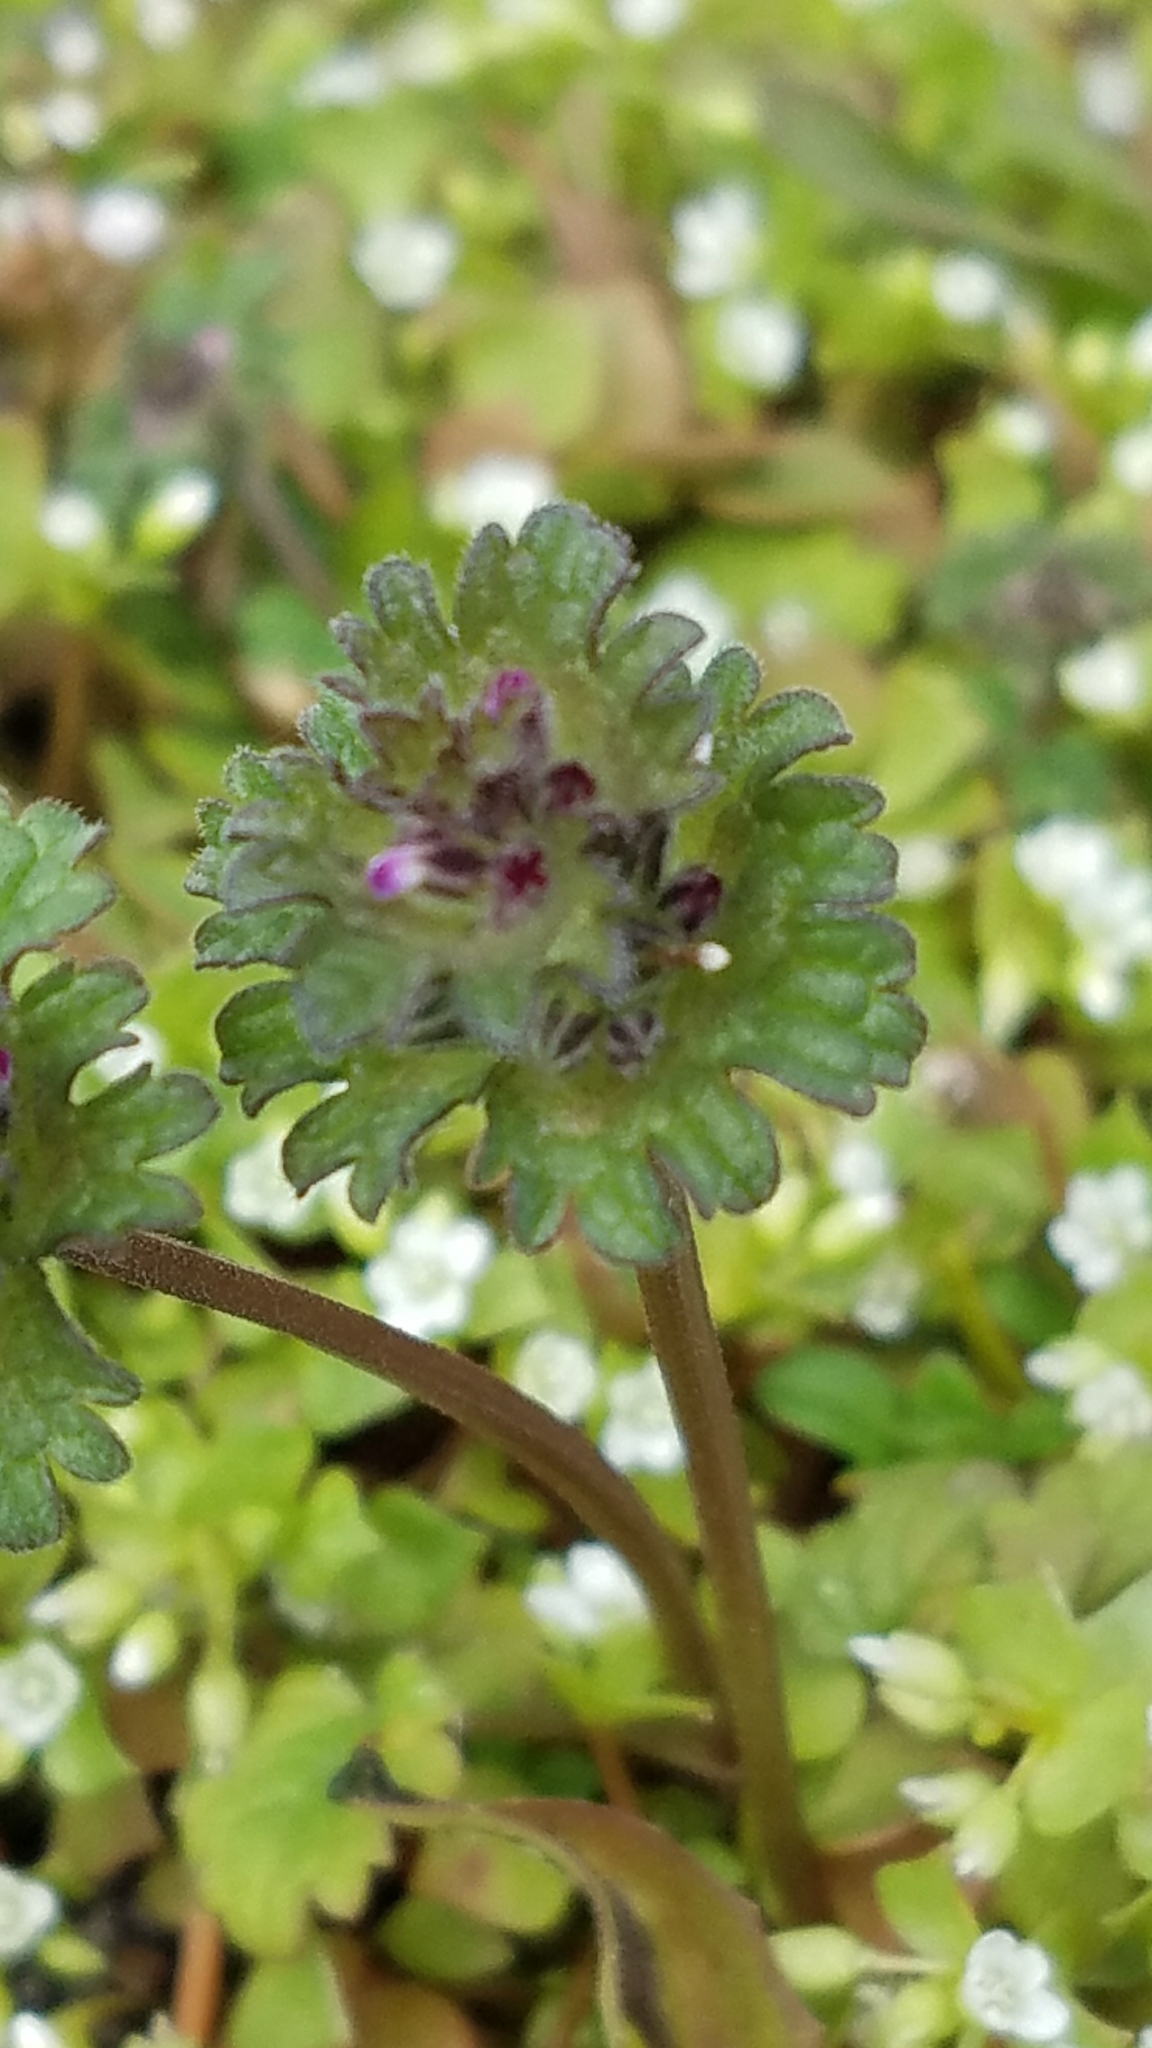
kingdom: Plantae
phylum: Tracheophyta
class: Magnoliopsida
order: Lamiales
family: Lamiaceae
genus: Lamium
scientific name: Lamium amplexicaule
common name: Henbit dead-nettle
